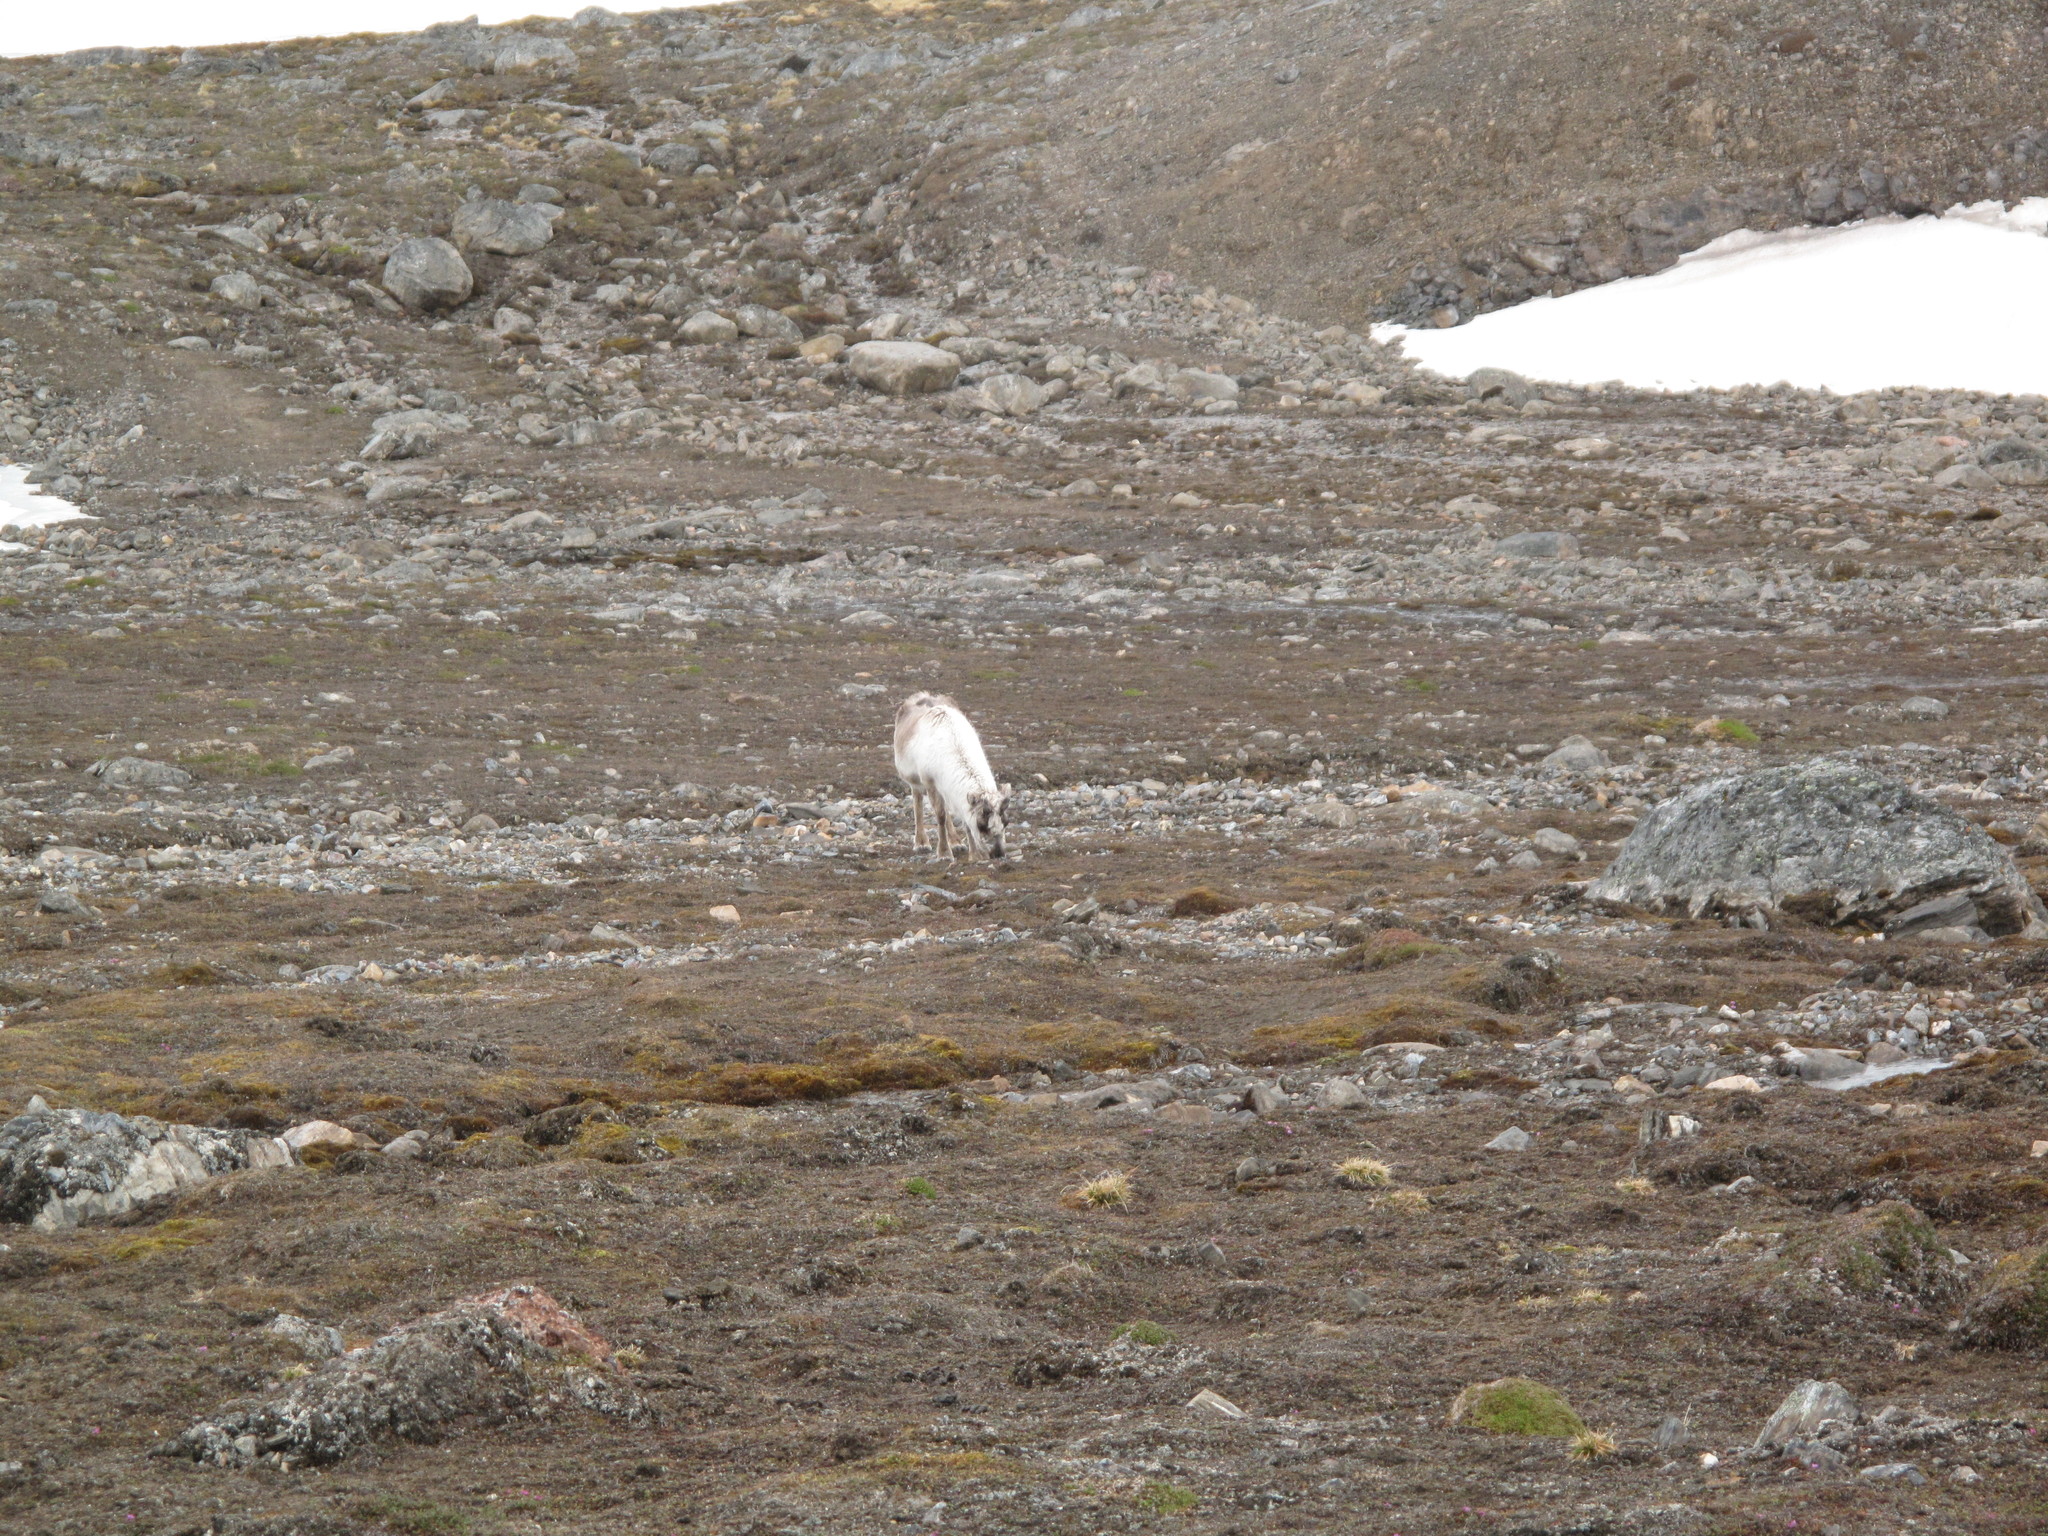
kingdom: Animalia
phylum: Chordata
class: Mammalia
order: Artiodactyla
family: Cervidae
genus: Rangifer
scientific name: Rangifer tarandus
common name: Reindeer
